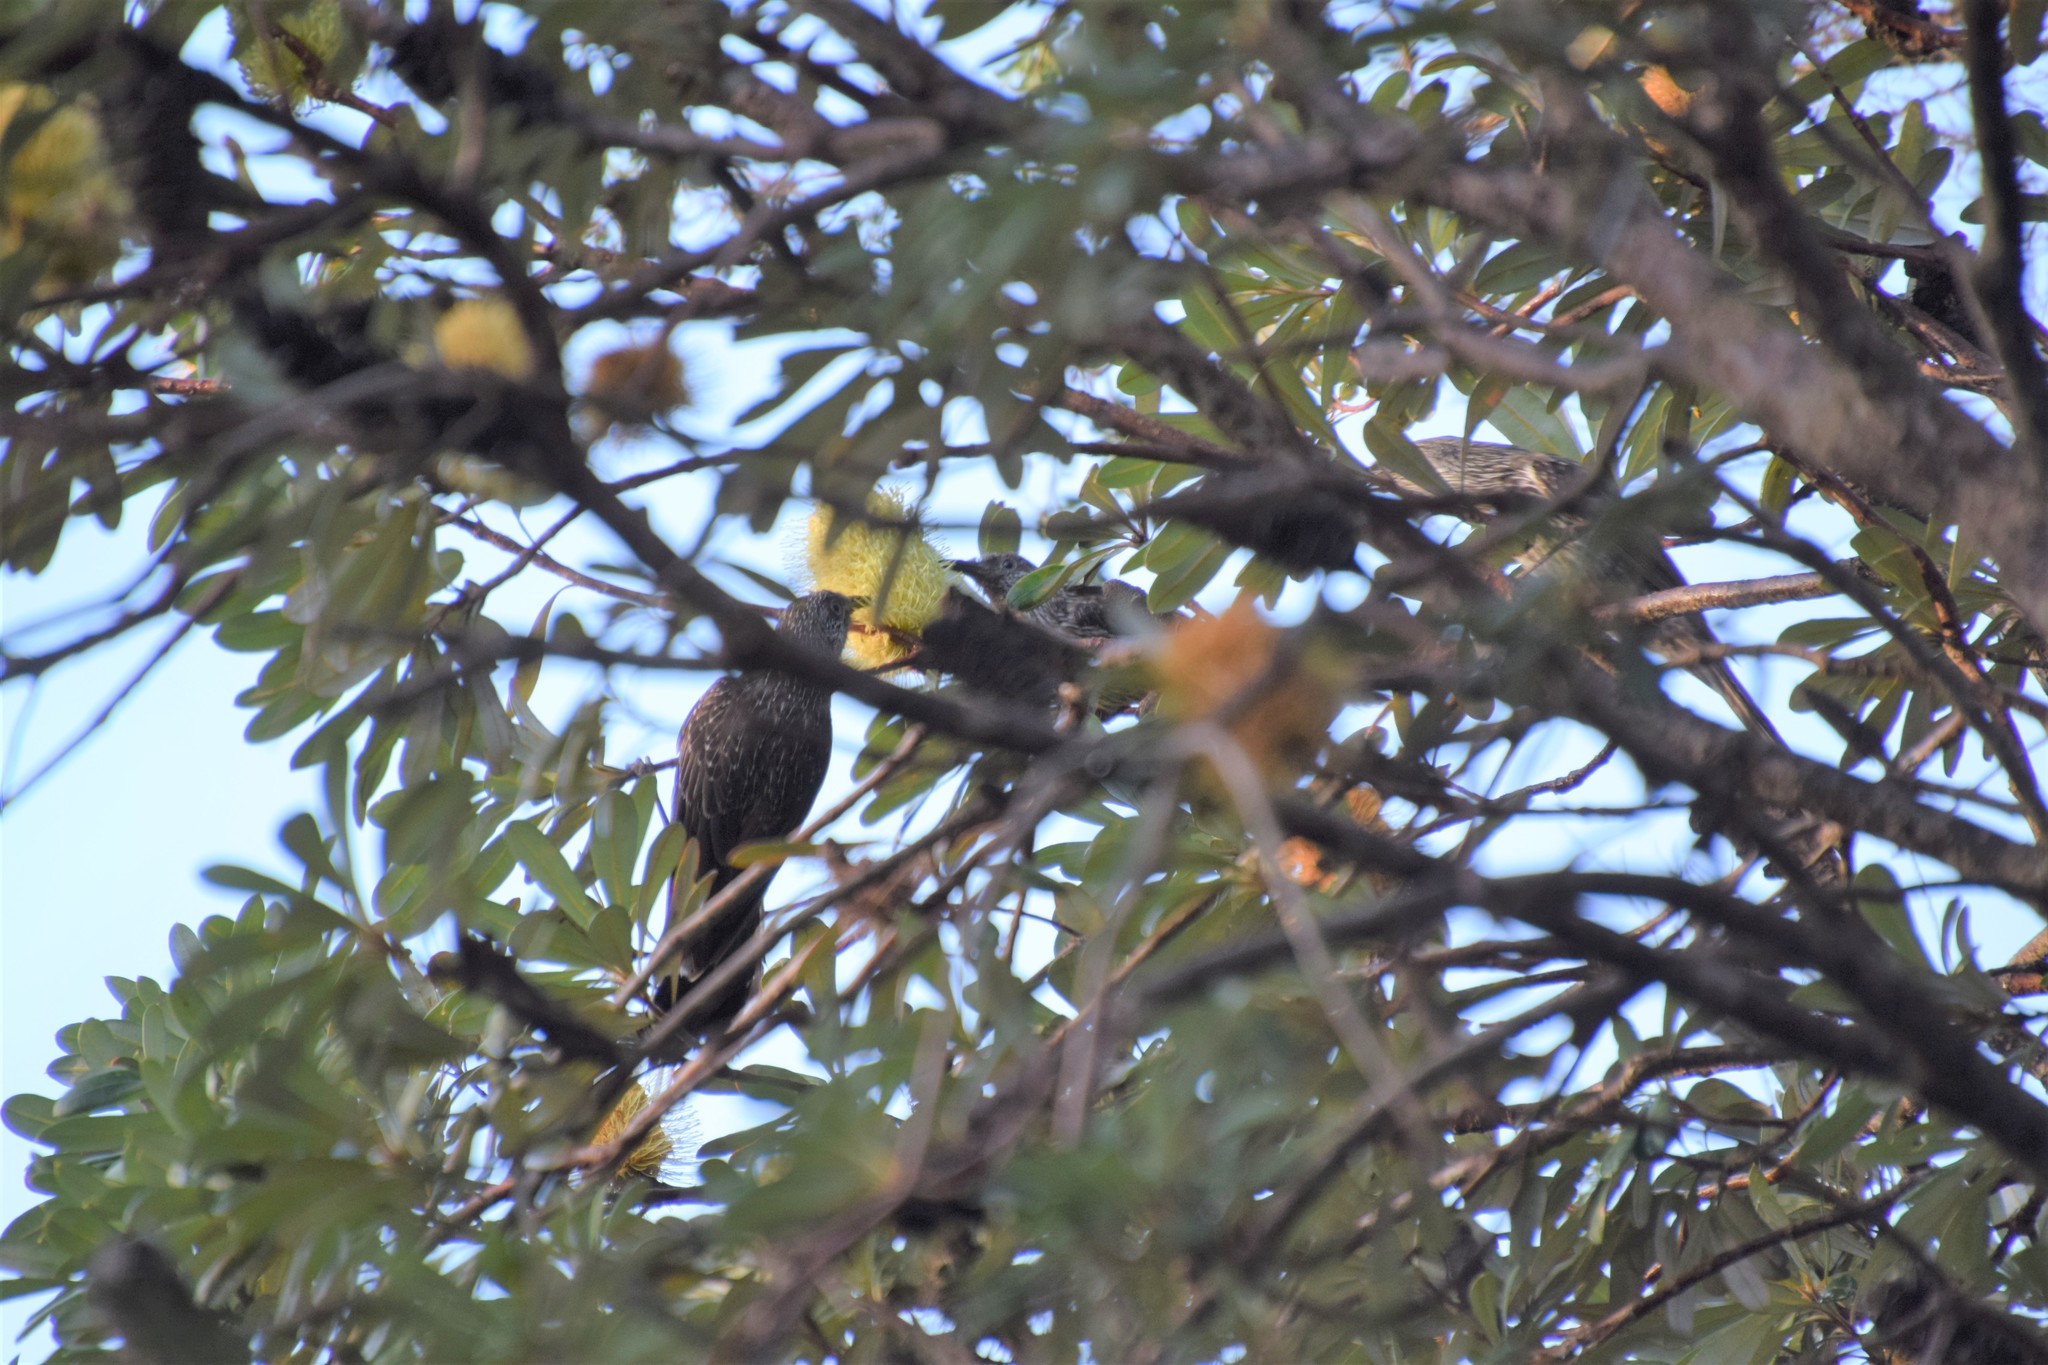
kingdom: Animalia
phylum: Chordata
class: Aves
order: Passeriformes
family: Meliphagidae
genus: Anthochaera
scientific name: Anthochaera chrysoptera
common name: Little wattlebird
